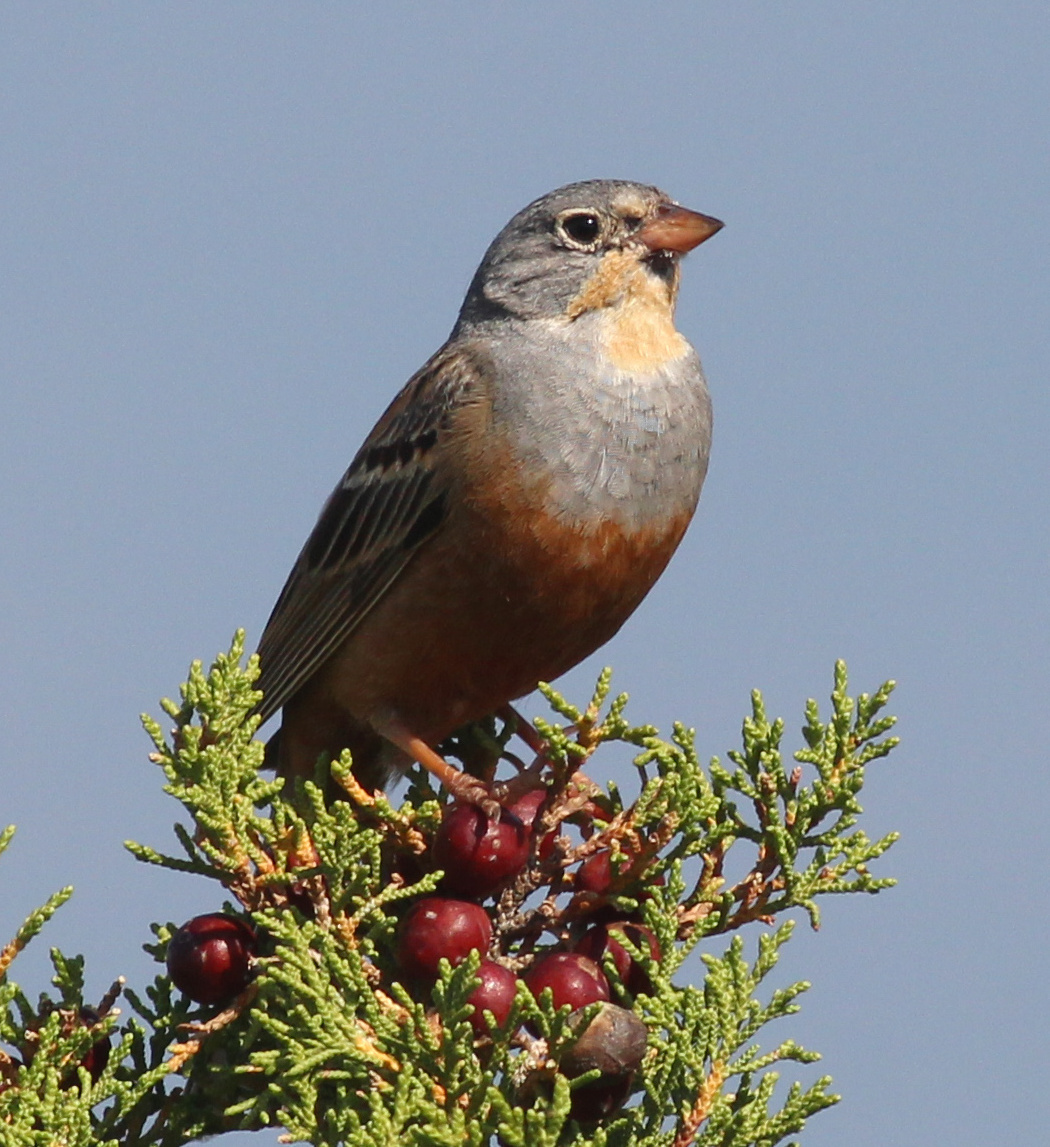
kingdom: Animalia
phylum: Chordata
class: Aves
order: Passeriformes
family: Emberizidae
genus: Emberiza
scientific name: Emberiza caesia
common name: Cretzschmar's bunting
